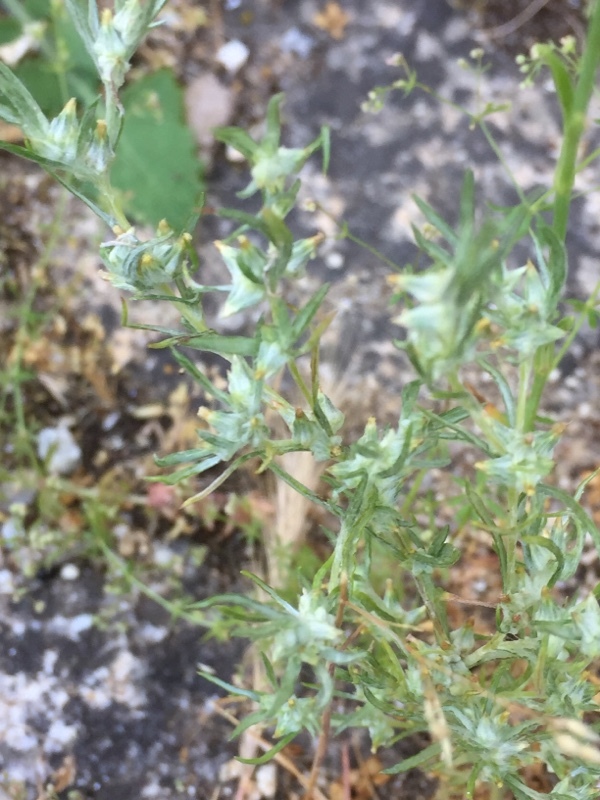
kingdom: Plantae
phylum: Tracheophyta
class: Magnoliopsida
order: Asterales
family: Asteraceae
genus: Logfia
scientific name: Logfia gallica
